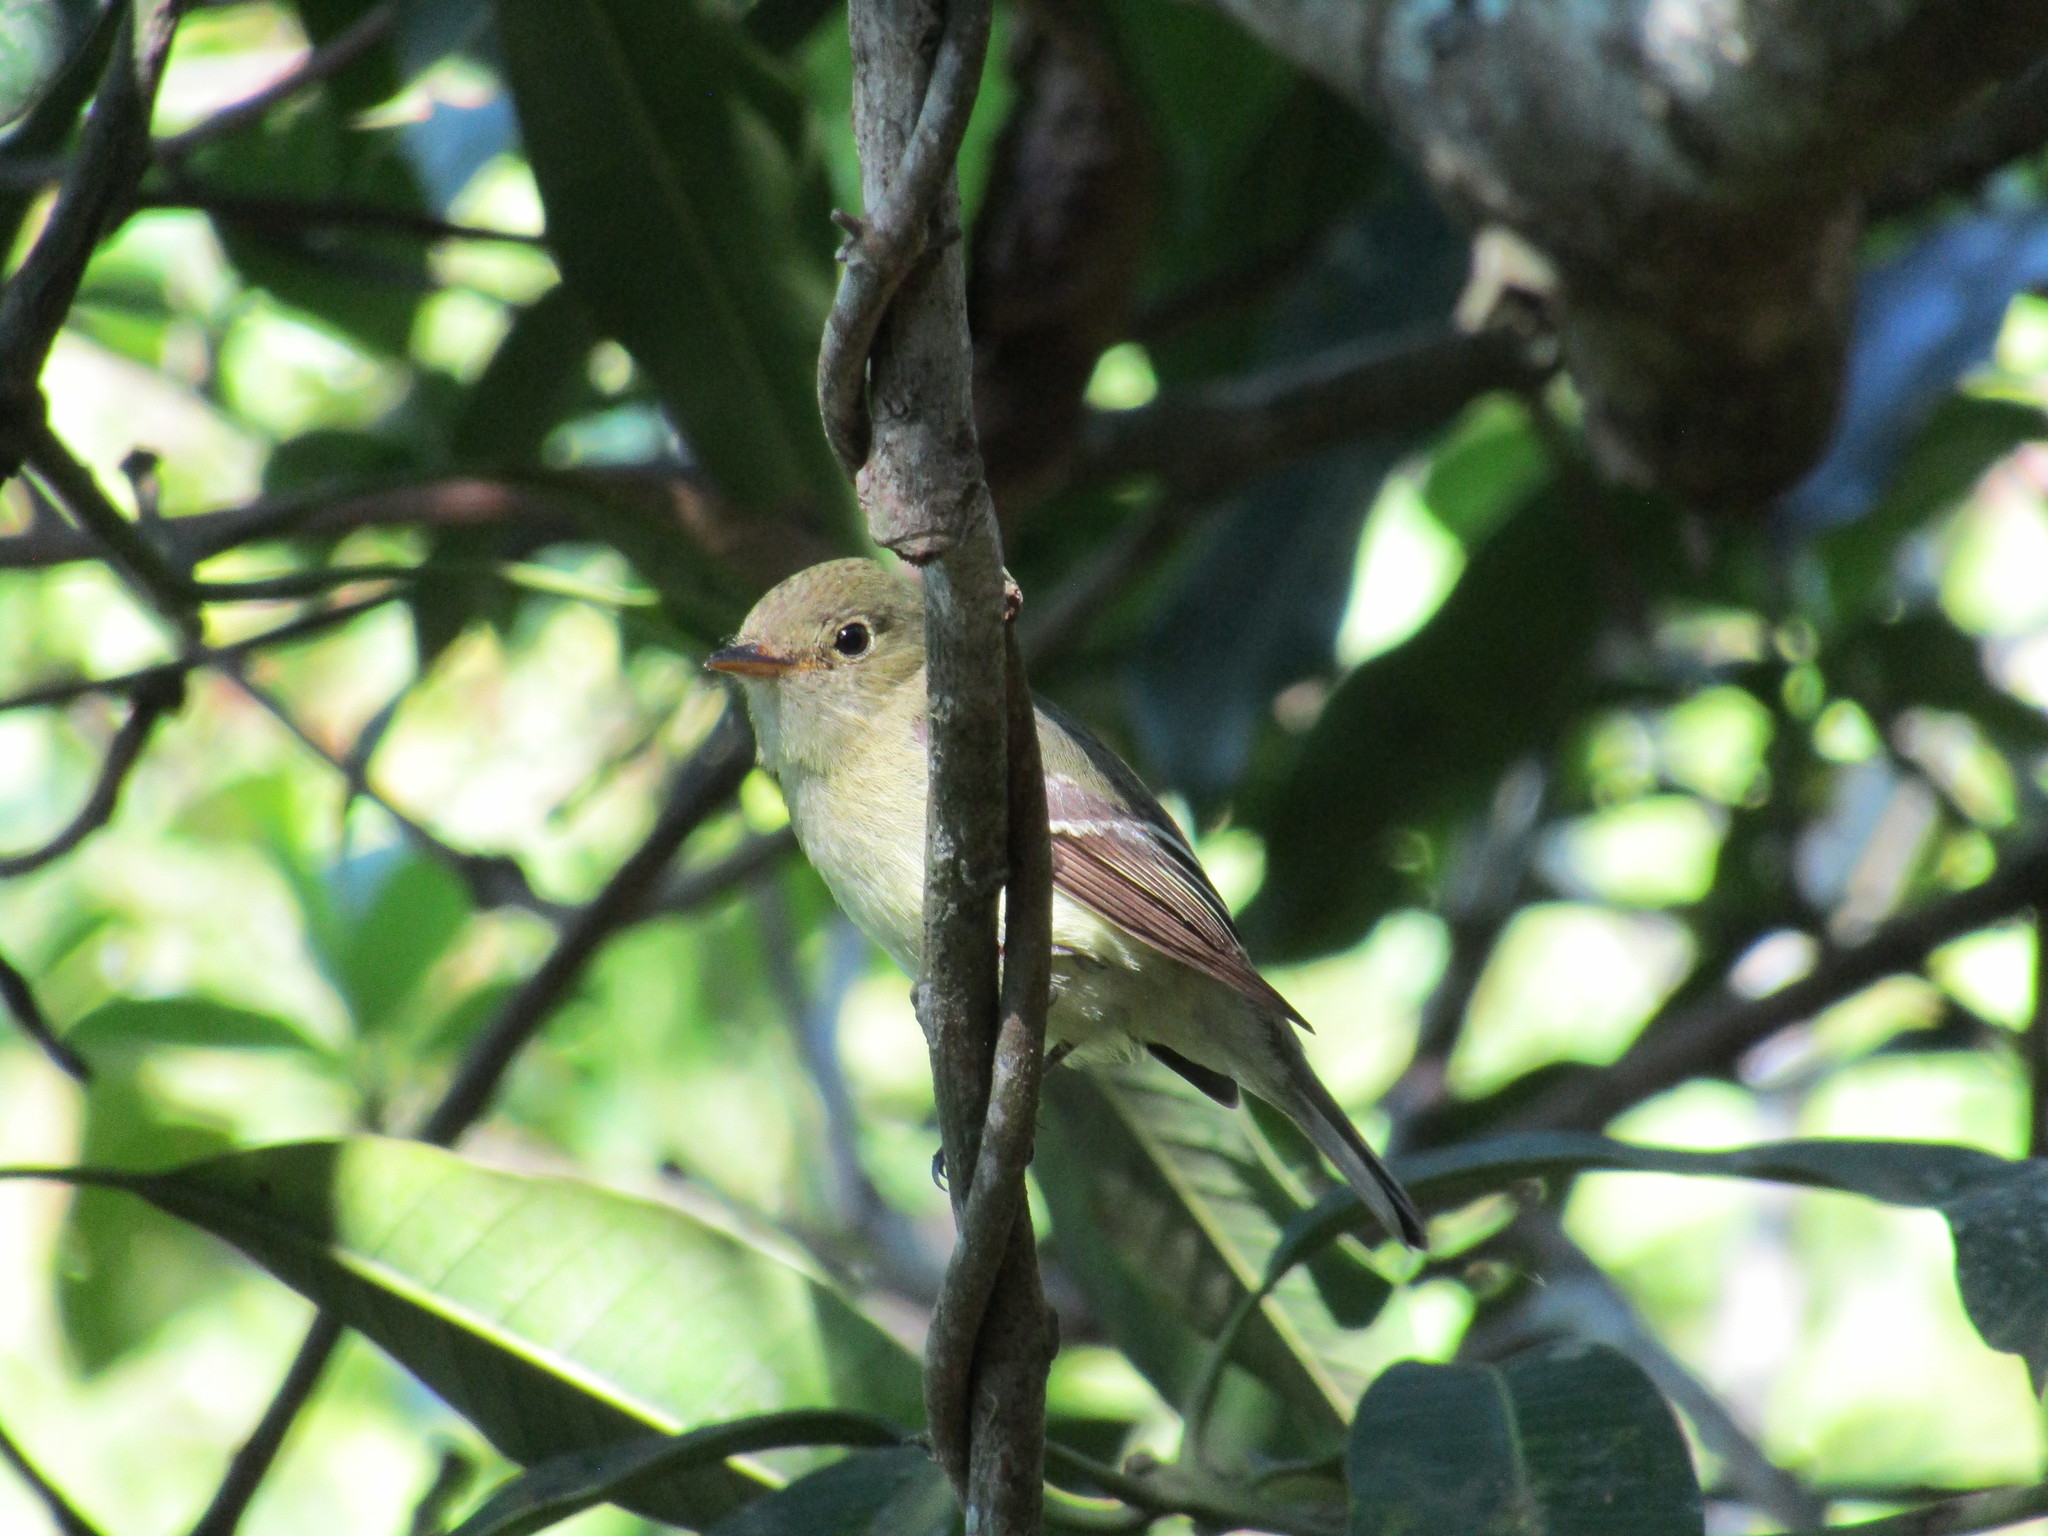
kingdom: Animalia
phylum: Chordata
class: Aves
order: Passeriformes
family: Tyrannidae
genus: Empidonax
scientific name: Empidonax flaviventris
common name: Yellow-bellied flycatcher
